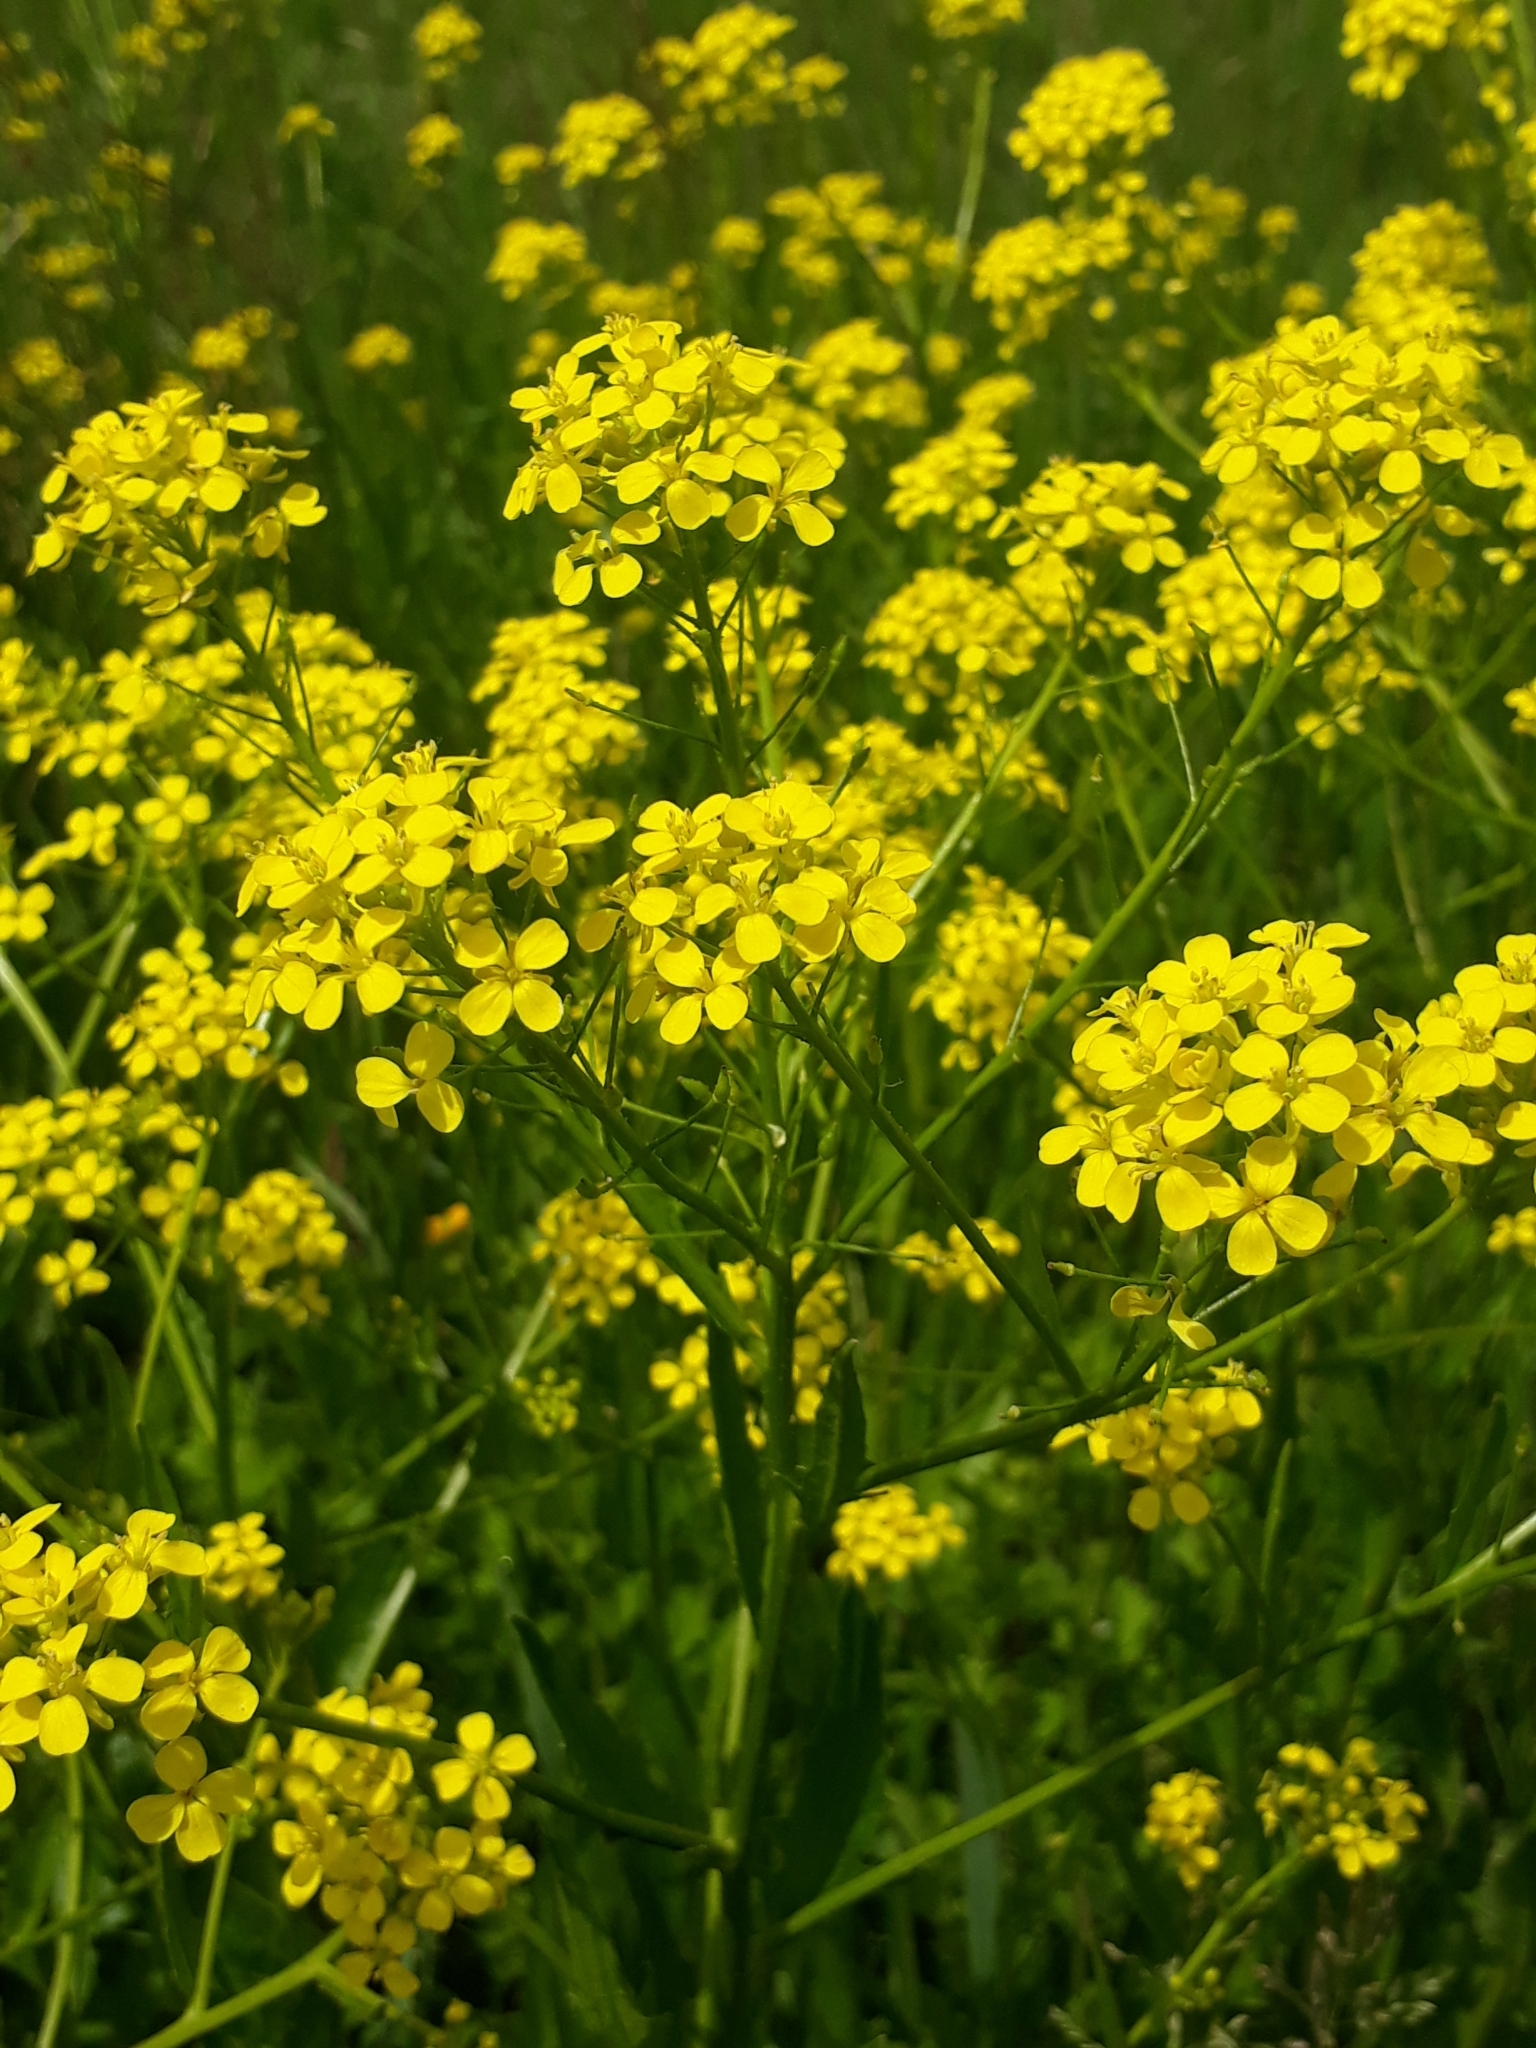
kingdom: Plantae
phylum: Tracheophyta
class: Magnoliopsida
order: Brassicales
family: Brassicaceae
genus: Bunias
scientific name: Bunias orientalis
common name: Warty-cabbage
